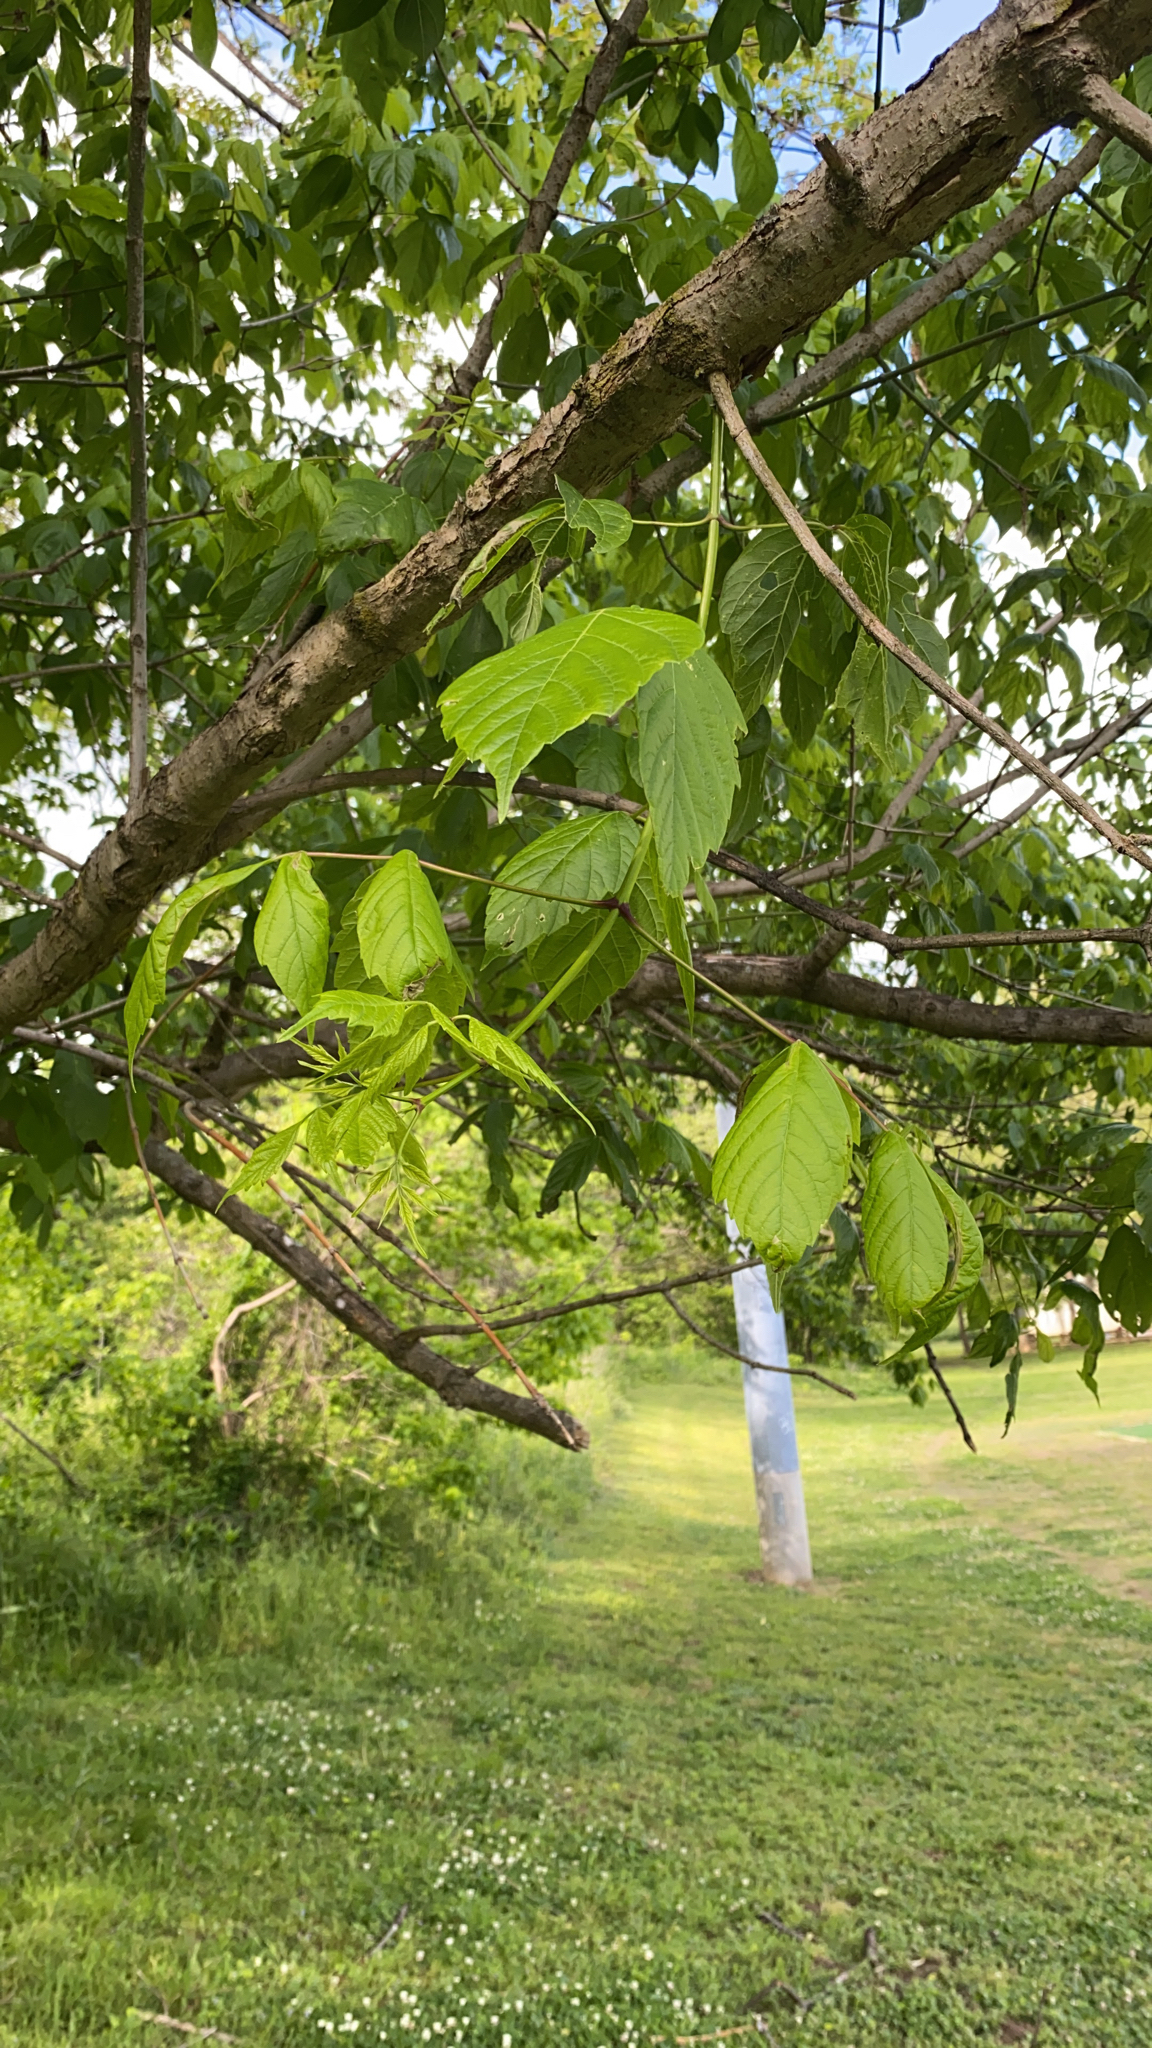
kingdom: Plantae
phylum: Tracheophyta
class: Magnoliopsida
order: Sapindales
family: Sapindaceae
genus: Acer
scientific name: Acer negundo
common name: Ashleaf maple
